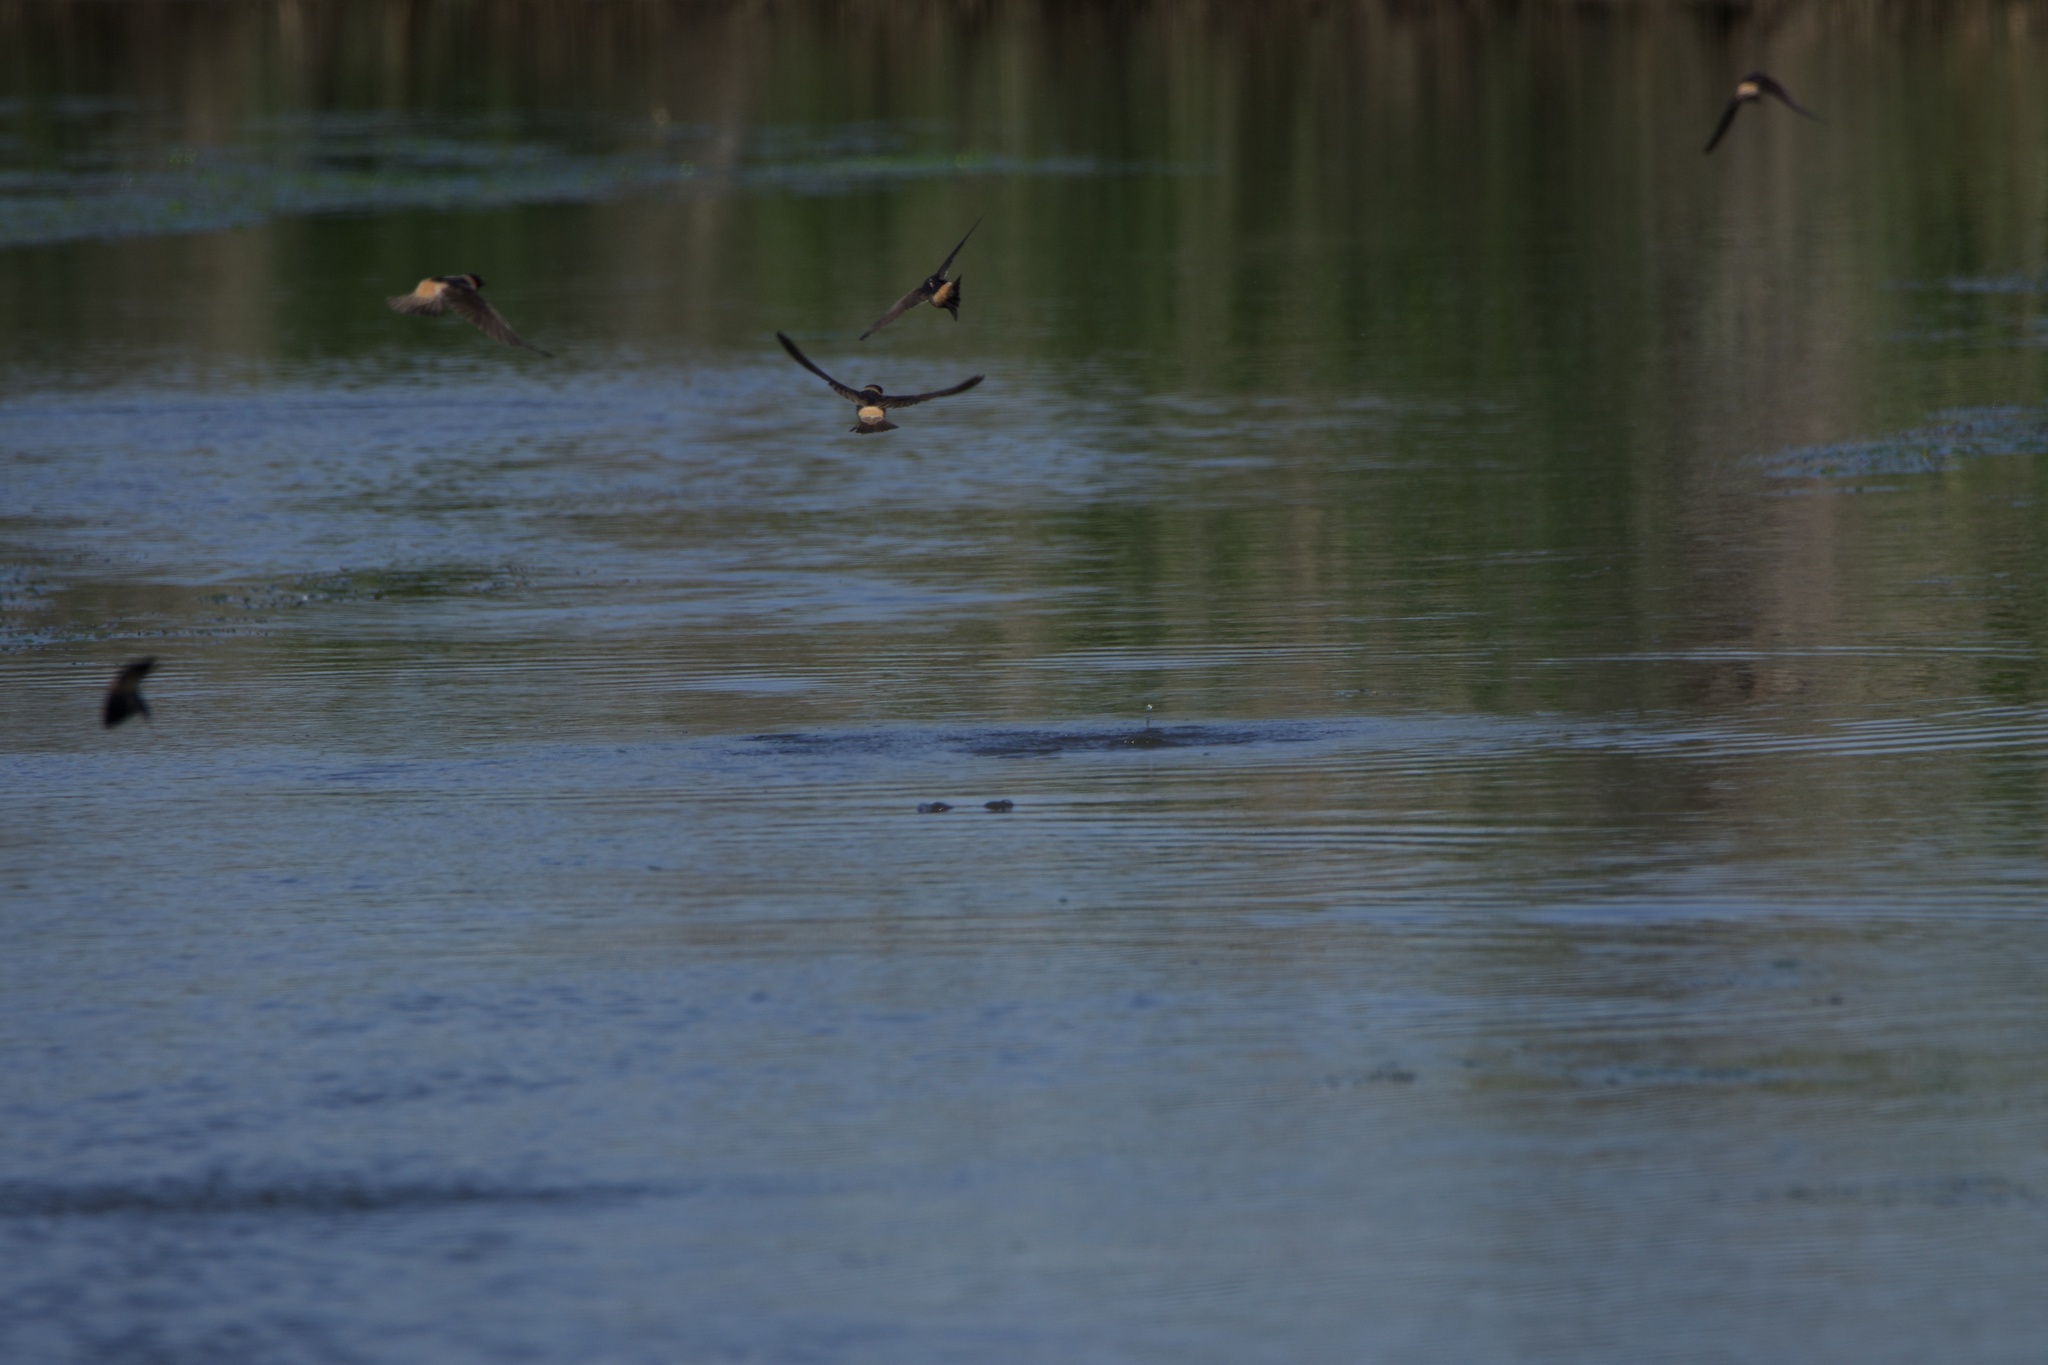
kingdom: Animalia
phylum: Chordata
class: Aves
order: Passeriformes
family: Hirundinidae
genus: Petrochelidon
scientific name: Petrochelidon pyrrhonota
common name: American cliff swallow
